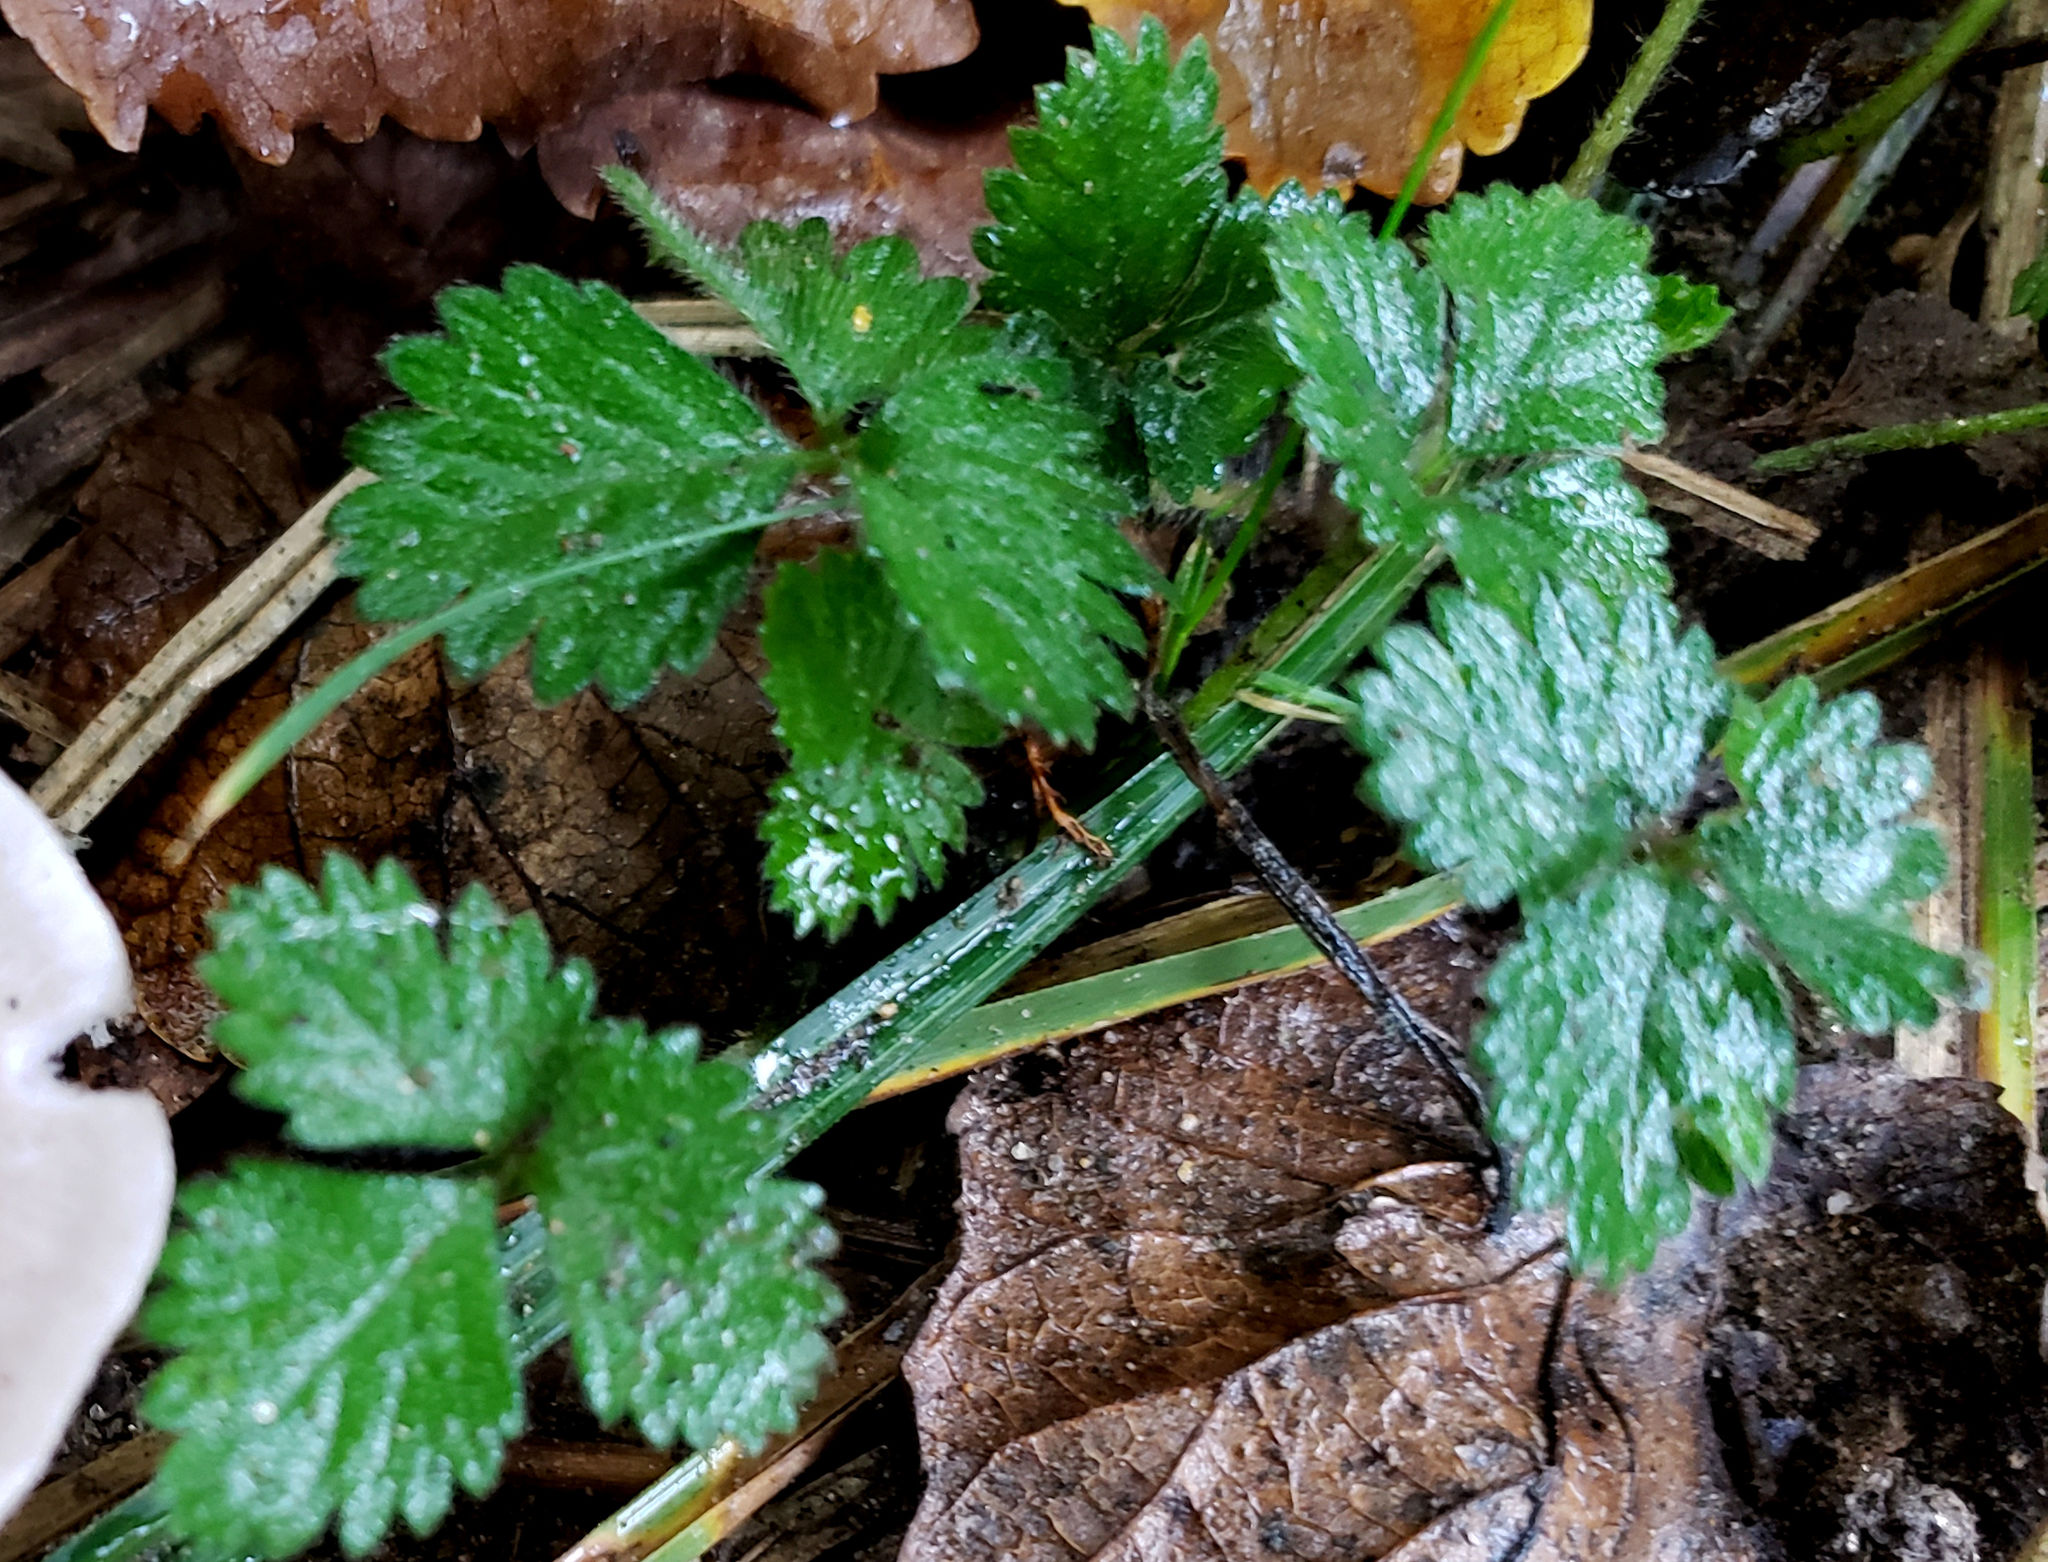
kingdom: Plantae
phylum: Tracheophyta
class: Magnoliopsida
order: Rosales
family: Rosaceae
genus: Potentilla
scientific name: Potentilla indica
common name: Yellow-flowered strawberry
